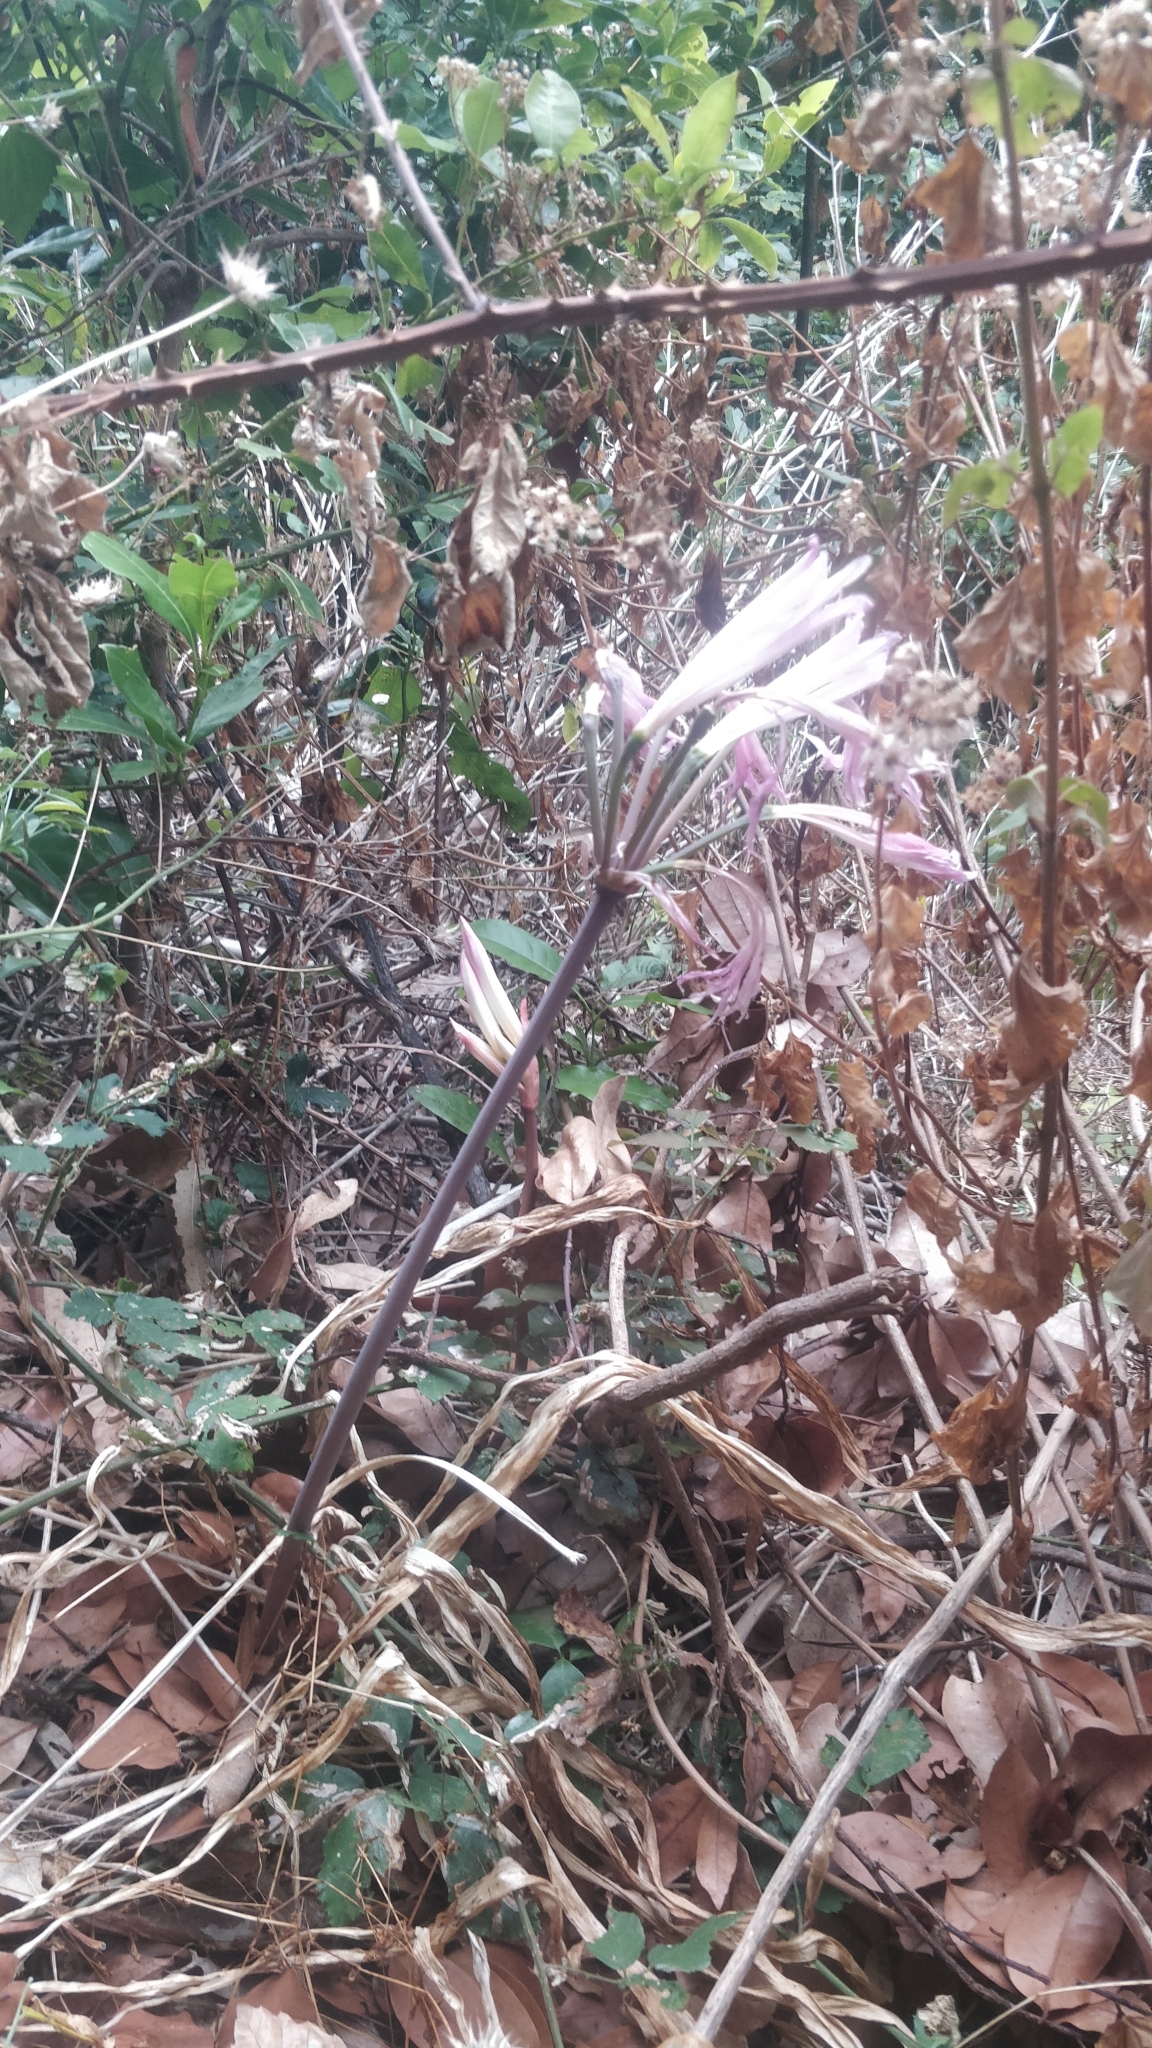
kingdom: Plantae
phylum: Tracheophyta
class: Liliopsida
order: Asparagales
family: Amaryllidaceae
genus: Amaryllis
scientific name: Amaryllis belladonna
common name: Jersey lily
